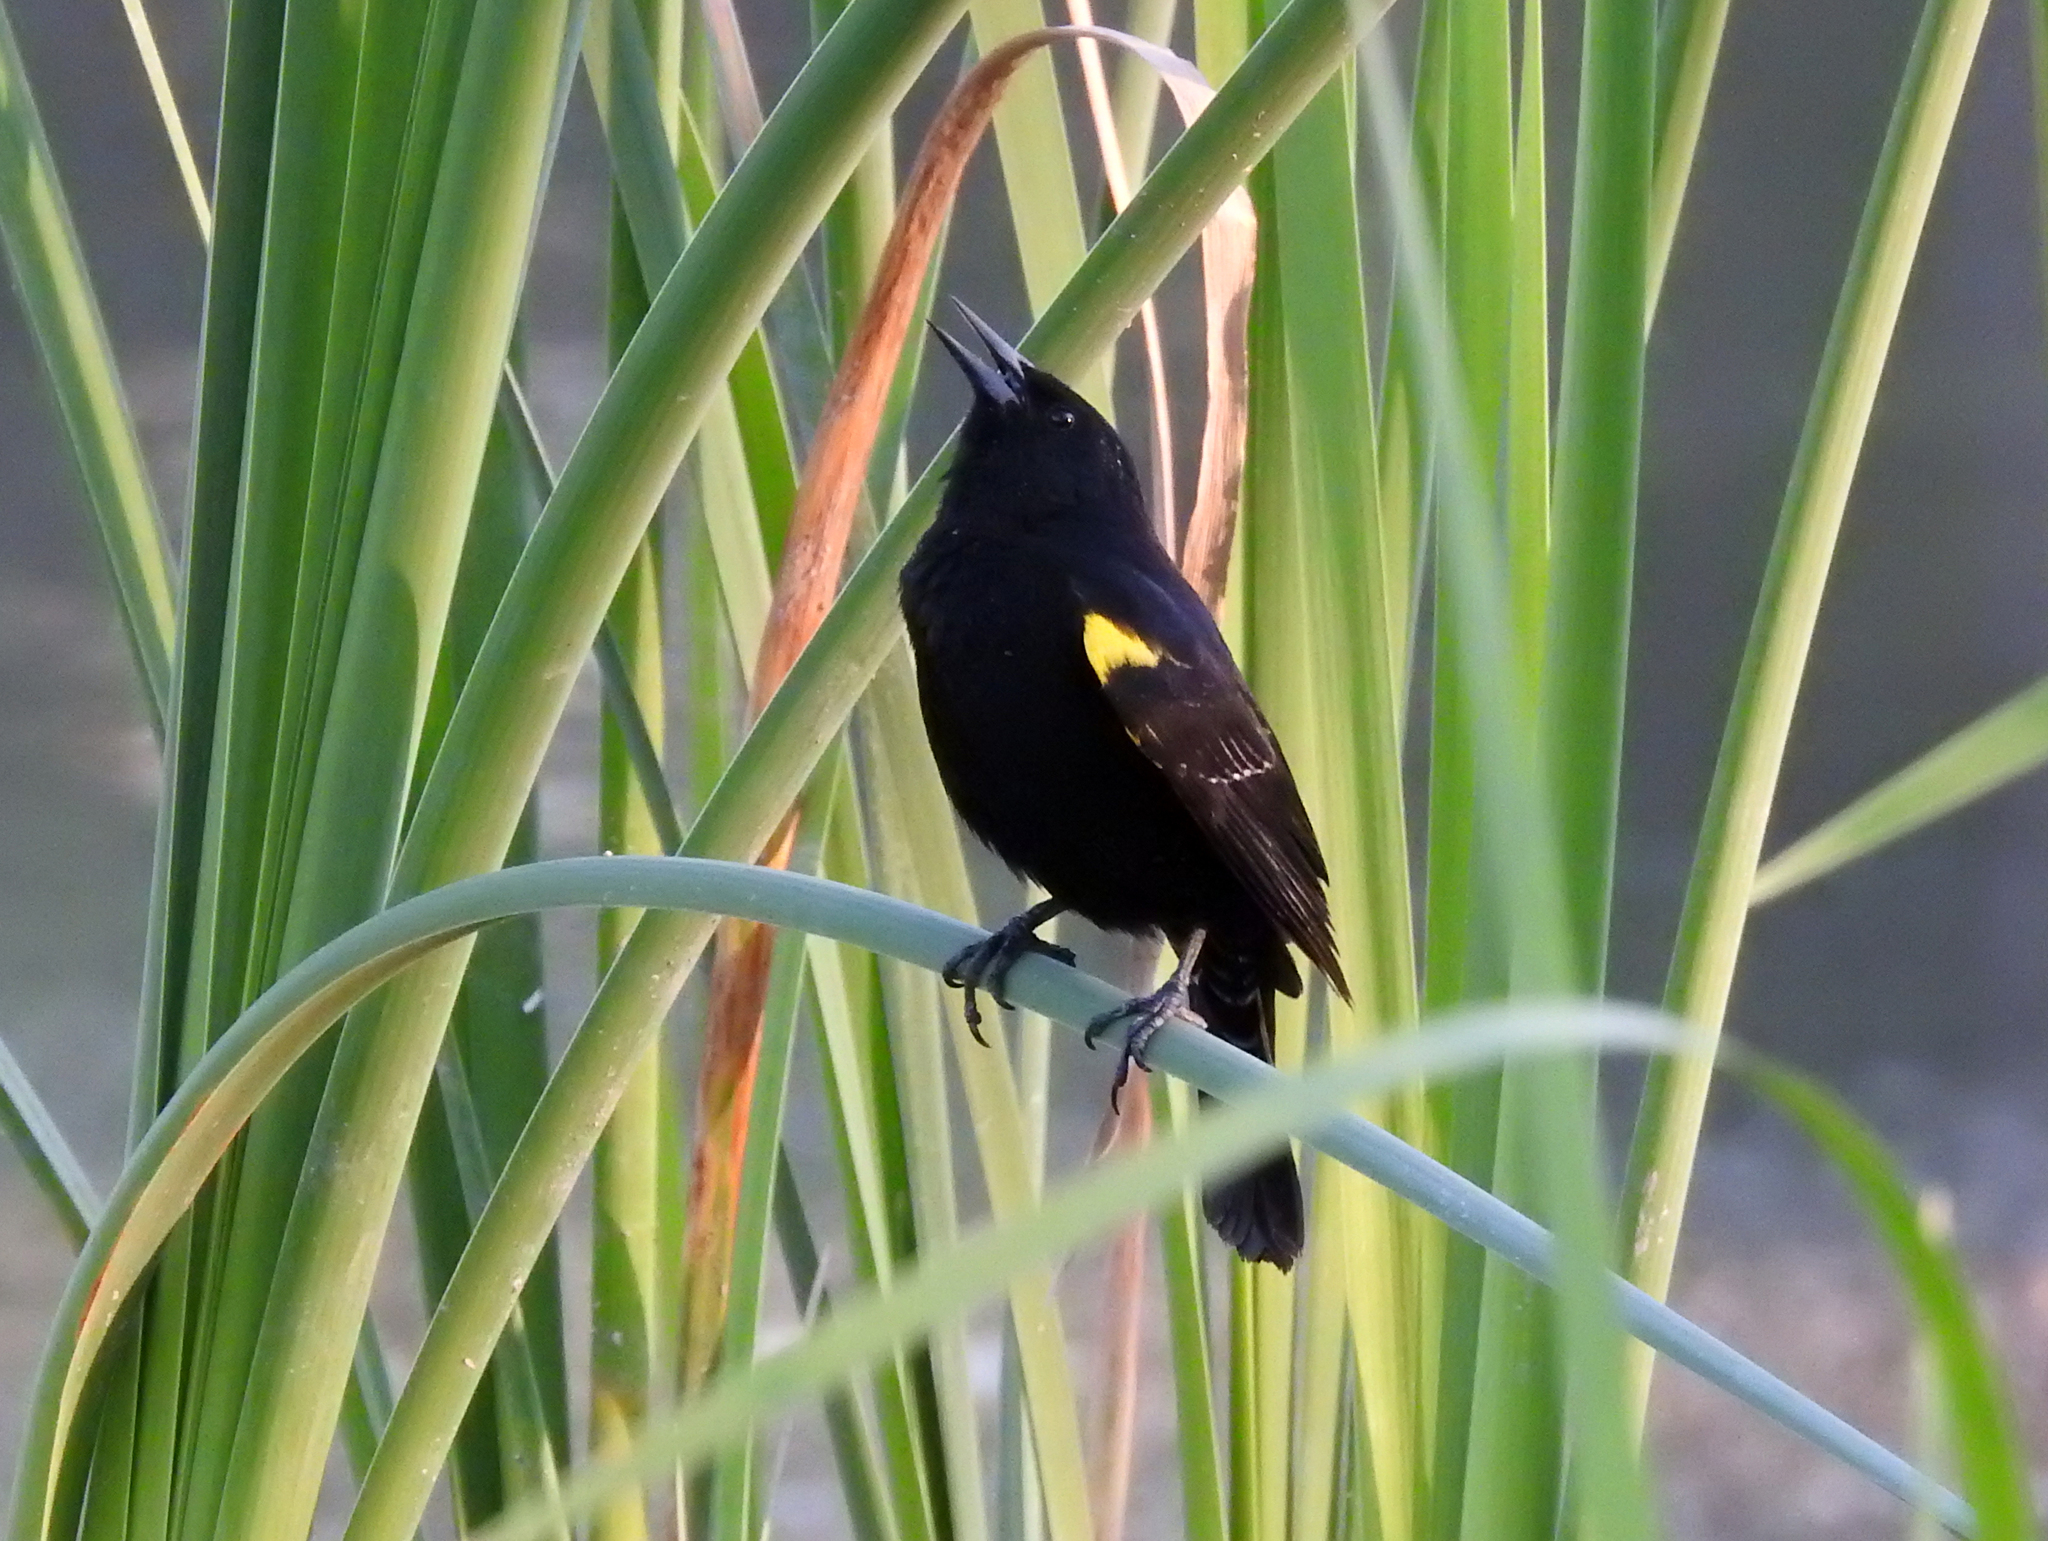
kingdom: Animalia
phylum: Chordata
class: Aves
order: Passeriformes
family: Icteridae
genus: Agelasticus
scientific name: Agelasticus thilius
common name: Yellow-winged blackbird
